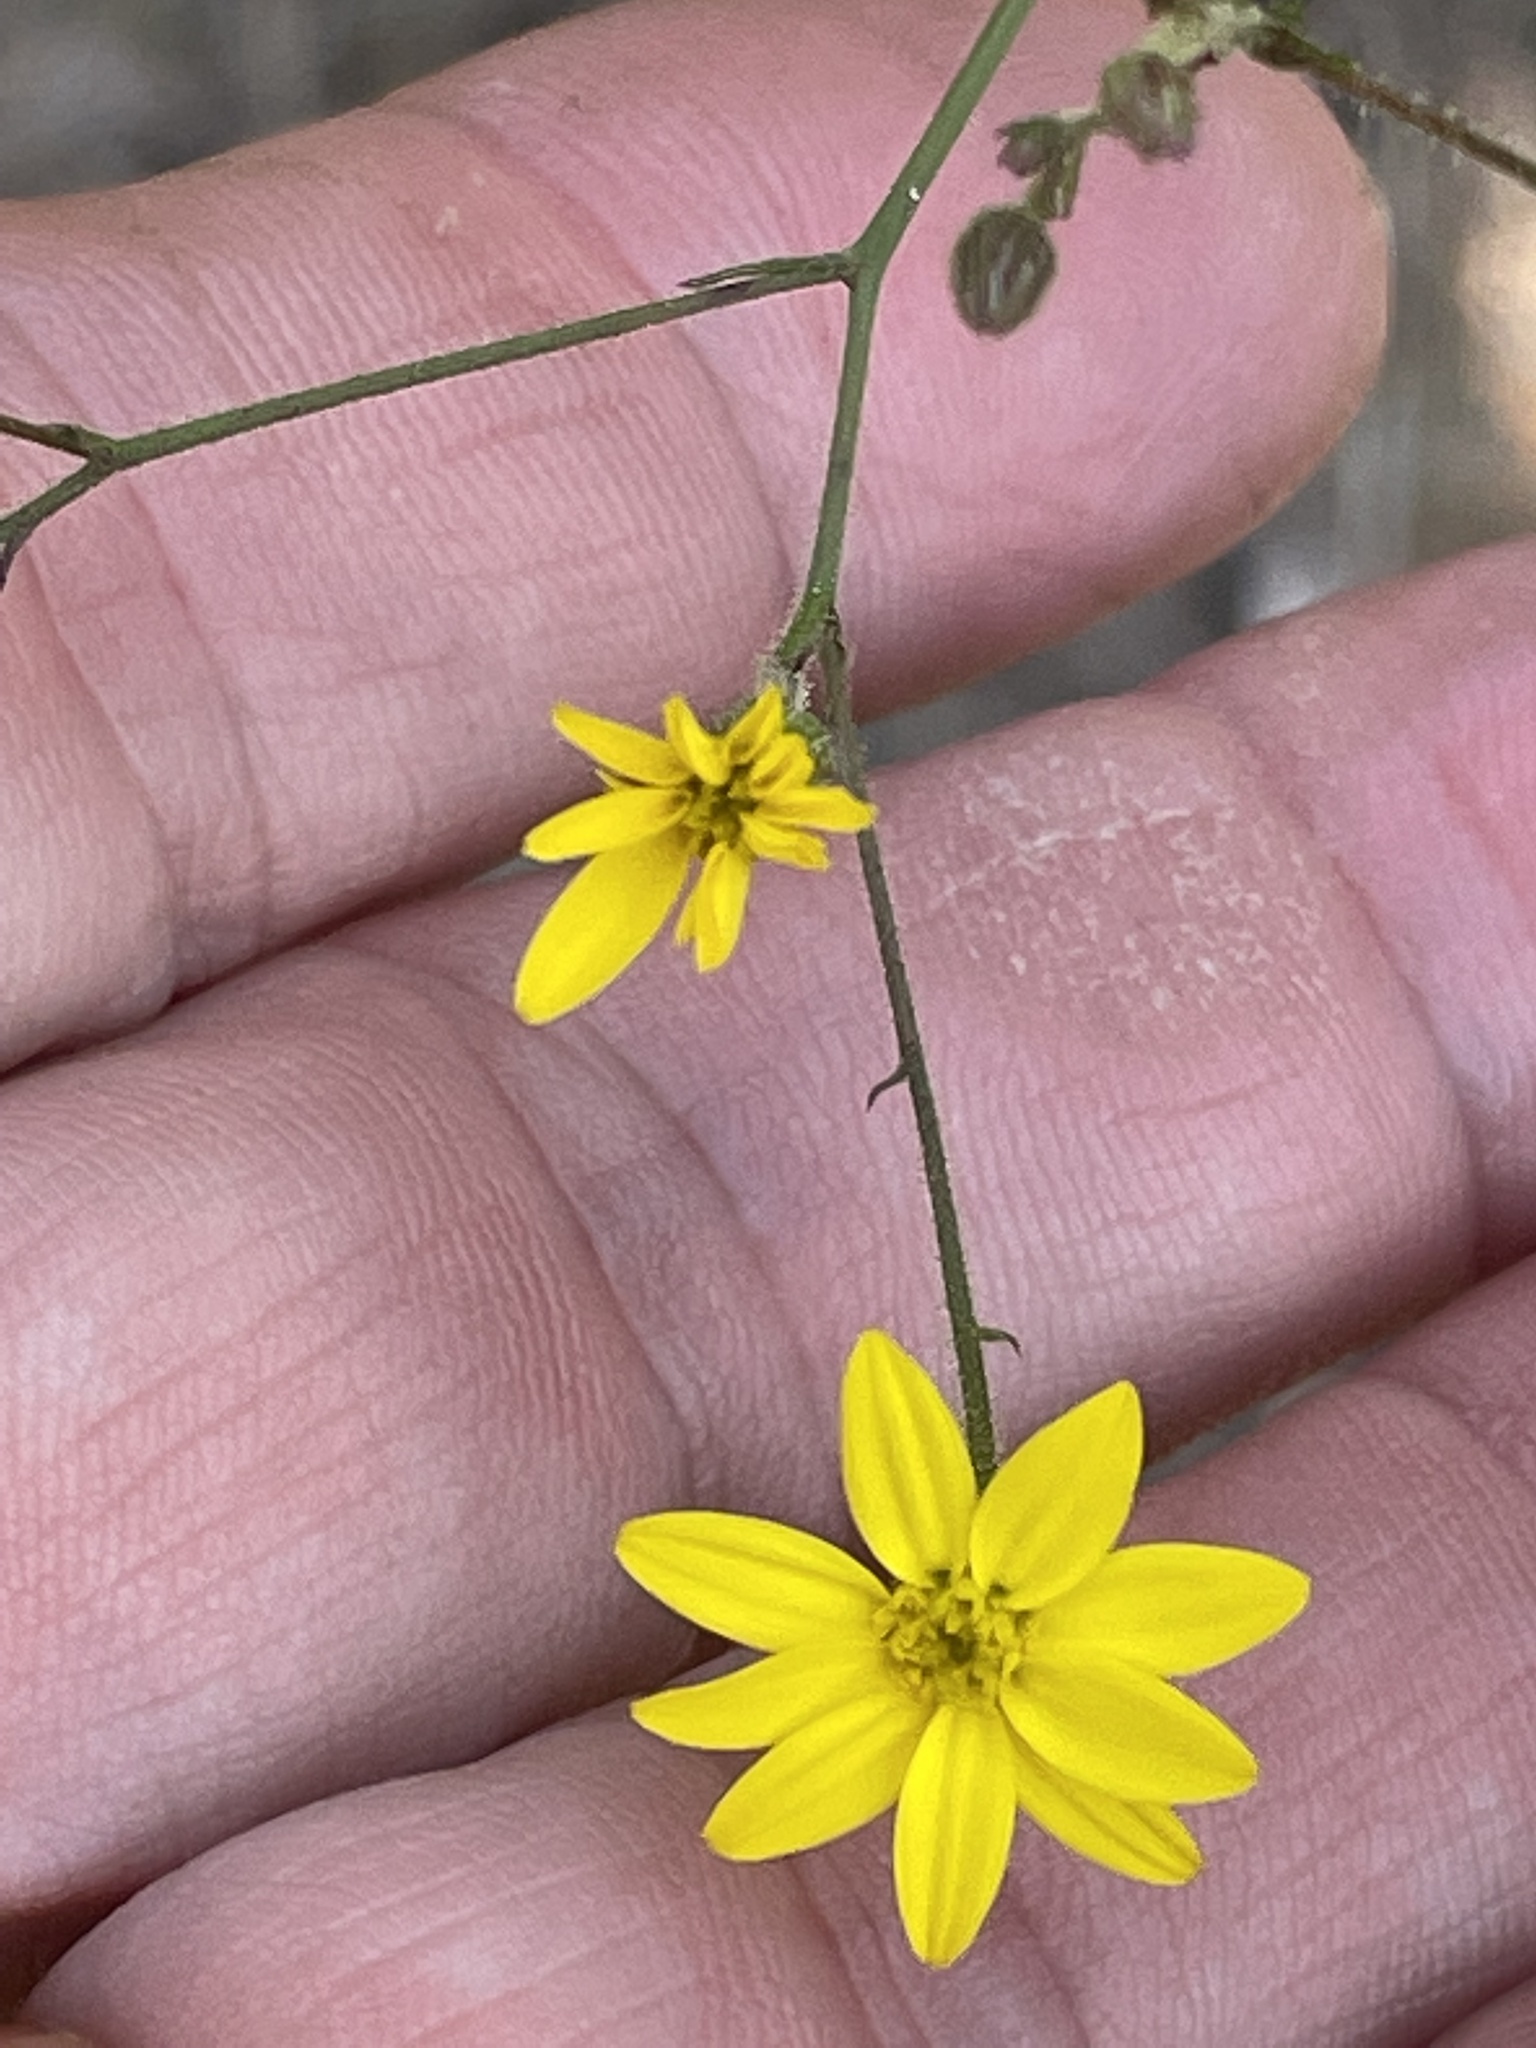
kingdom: Plantae
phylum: Tracheophyta
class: Magnoliopsida
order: Asterales
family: Asteraceae
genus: Croptilon
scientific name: Croptilon divaricatum
